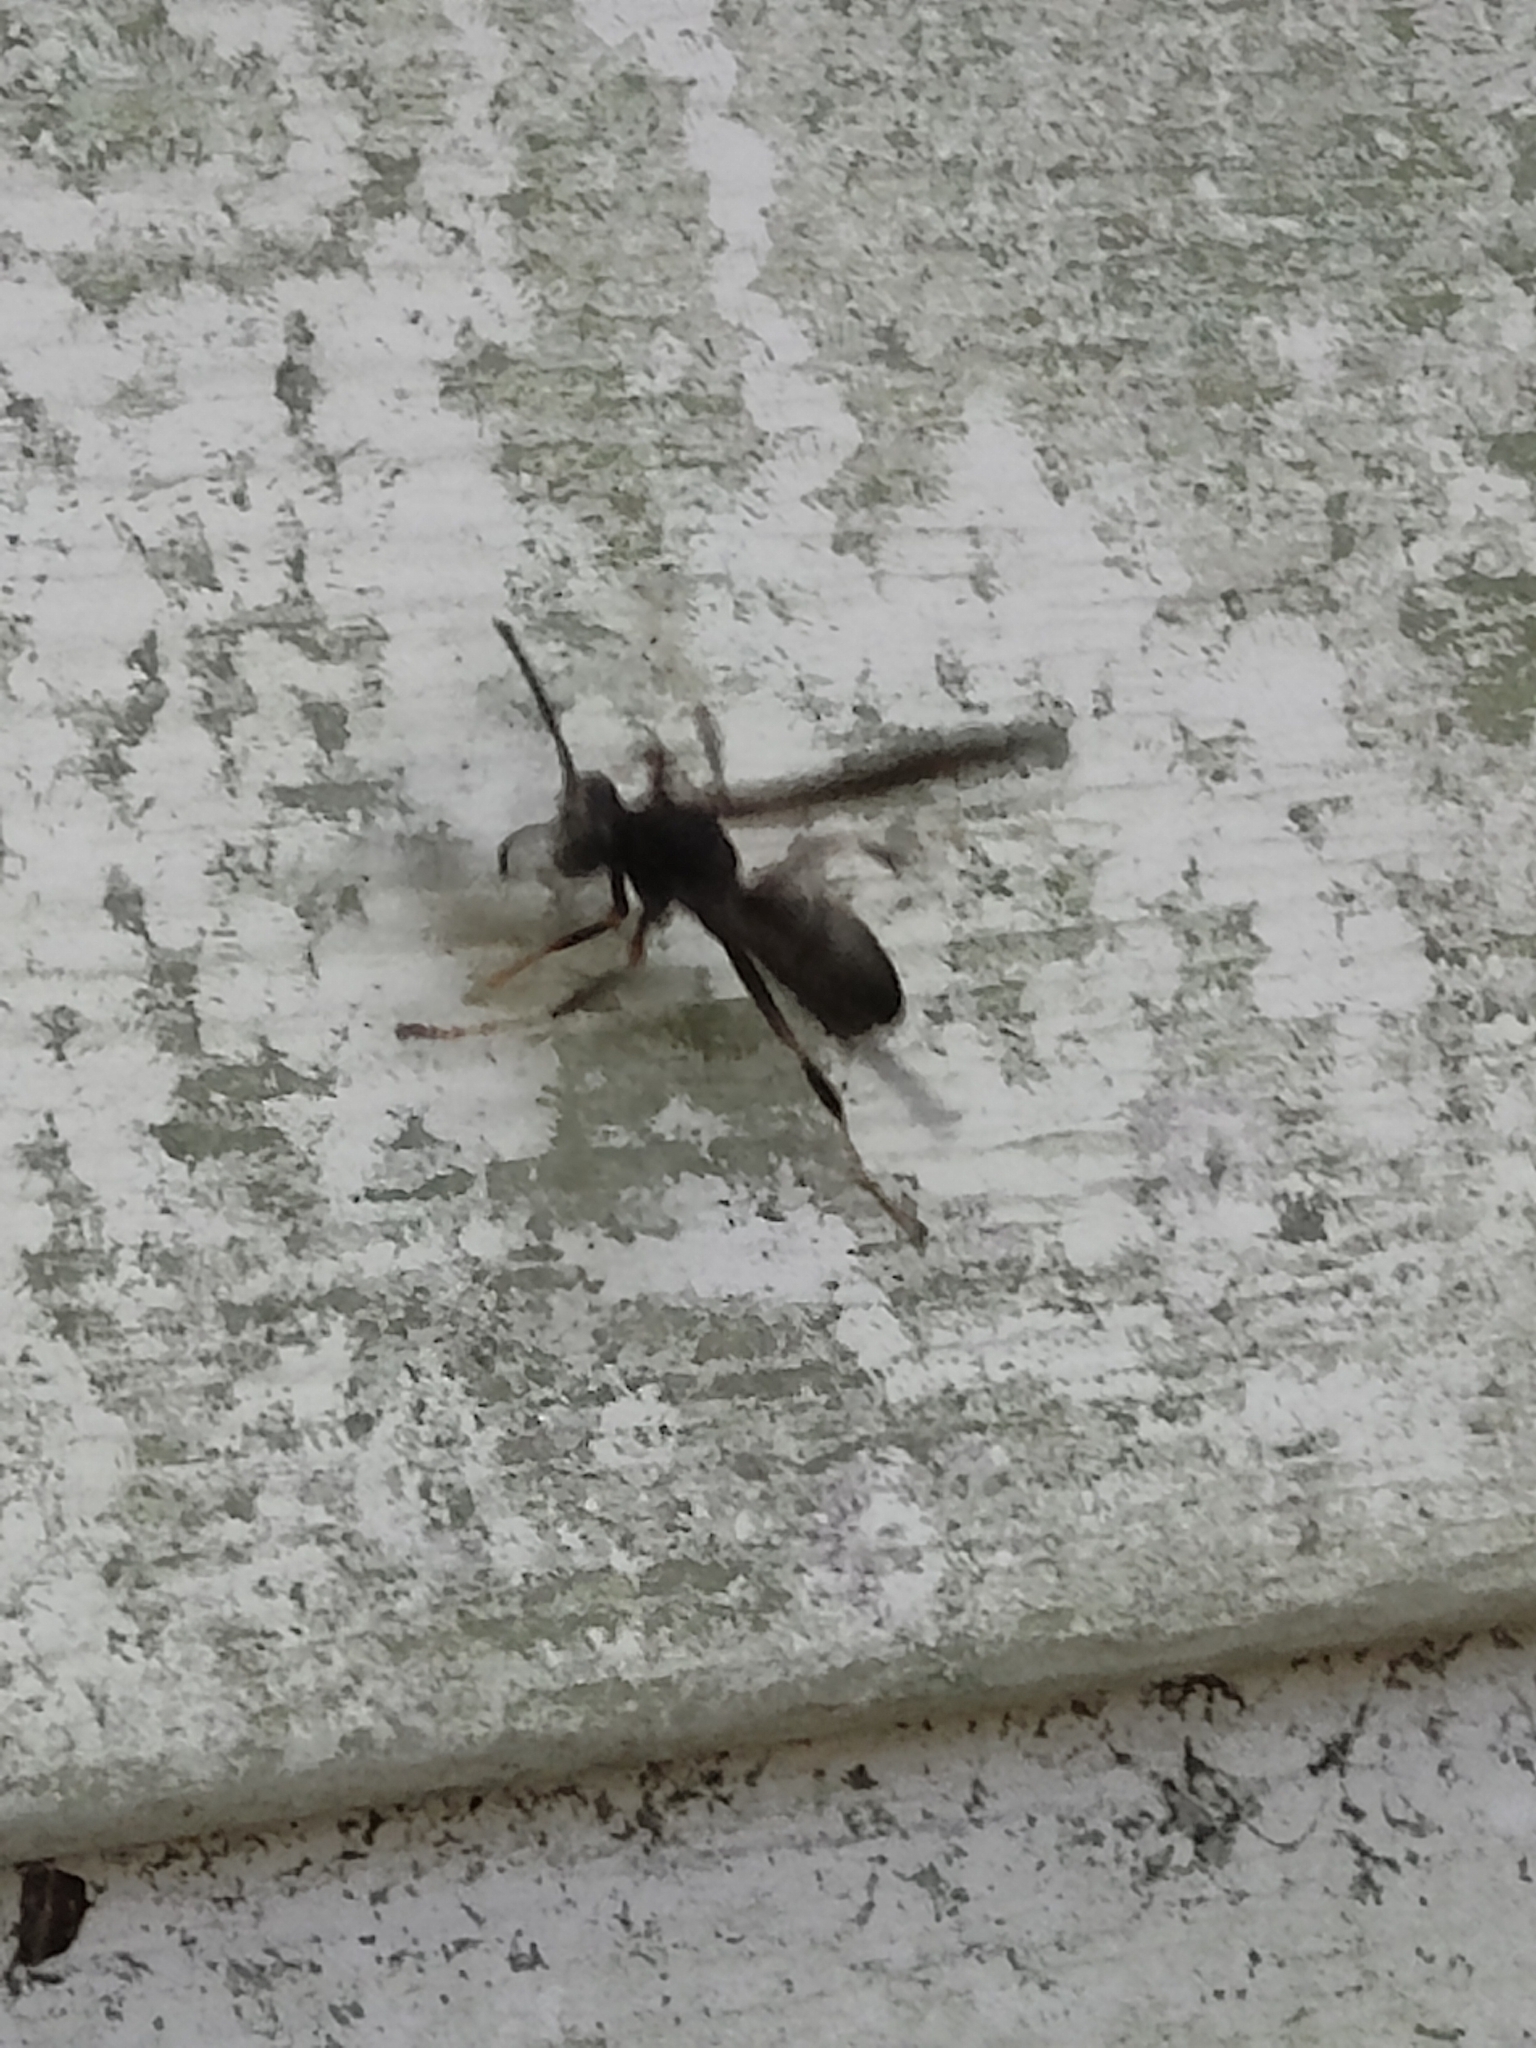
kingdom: Animalia
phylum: Arthropoda
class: Insecta
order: Hymenoptera
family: Eumenidae
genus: Polistes
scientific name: Polistes fuscatus
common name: Dark paper wasp
